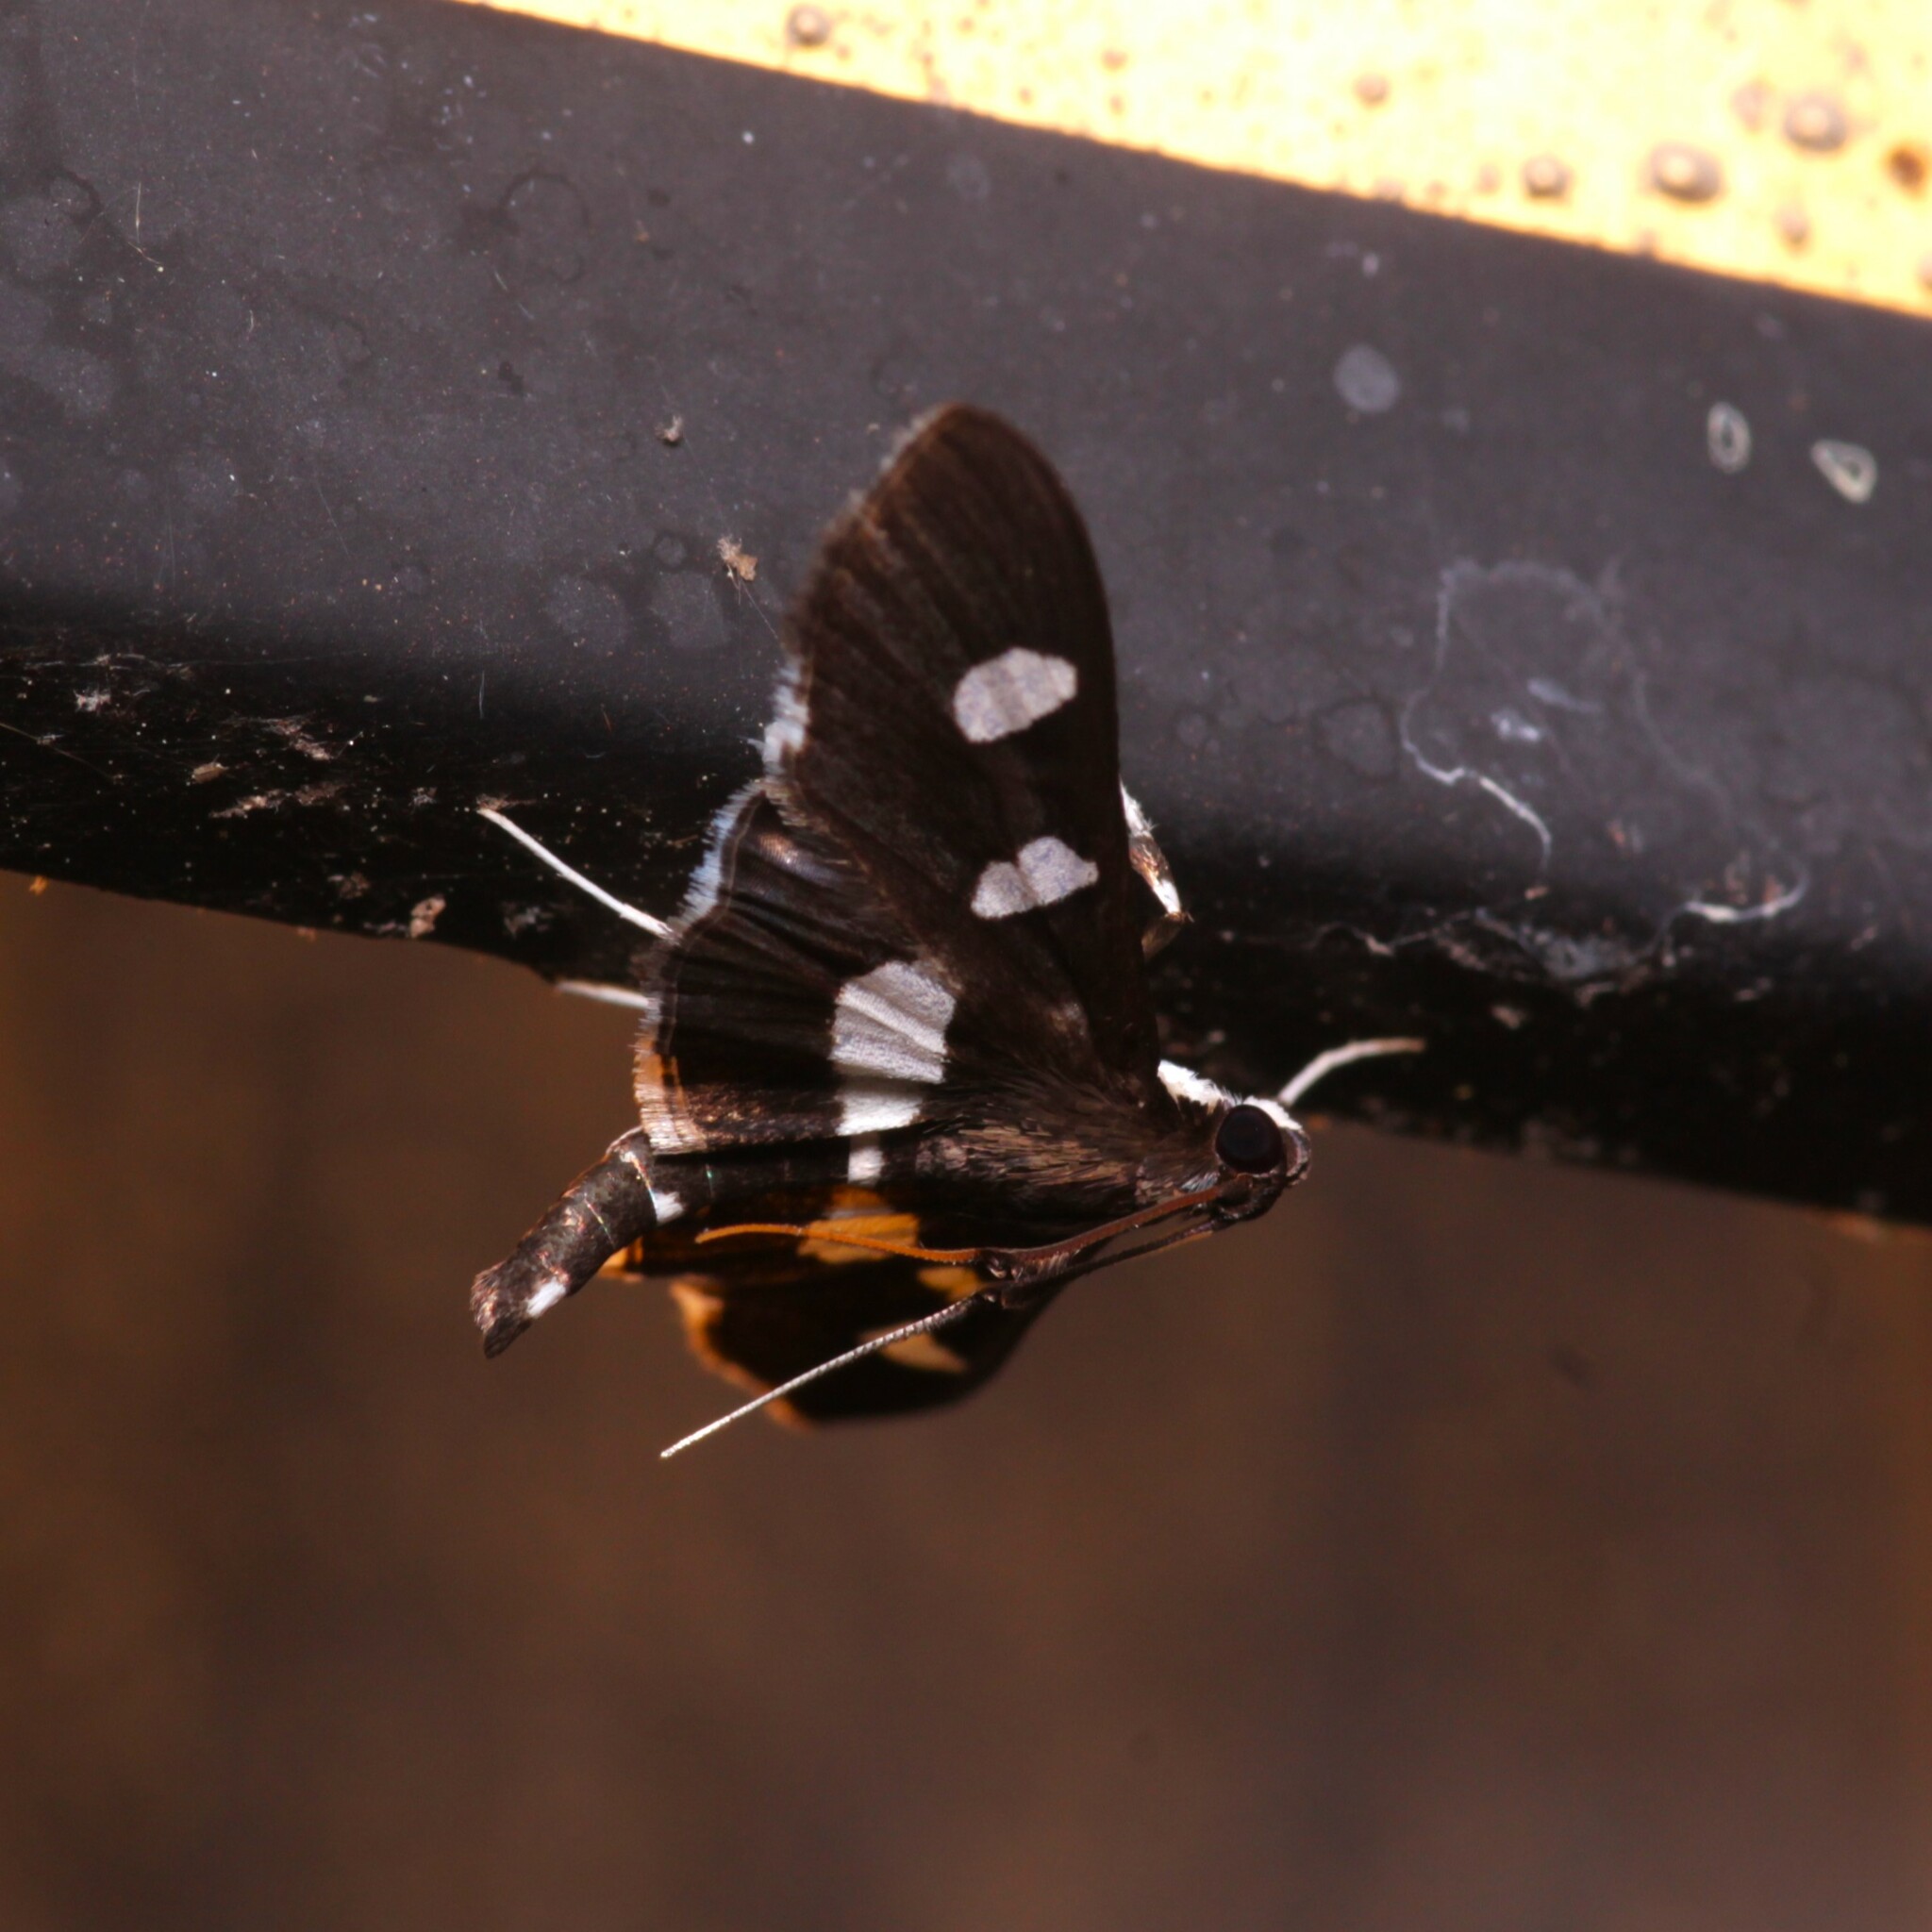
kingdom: Animalia
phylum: Arthropoda
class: Insecta
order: Lepidoptera
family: Crambidae
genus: Desmia
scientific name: Desmia funeralis
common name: Grape leaf folder moth
